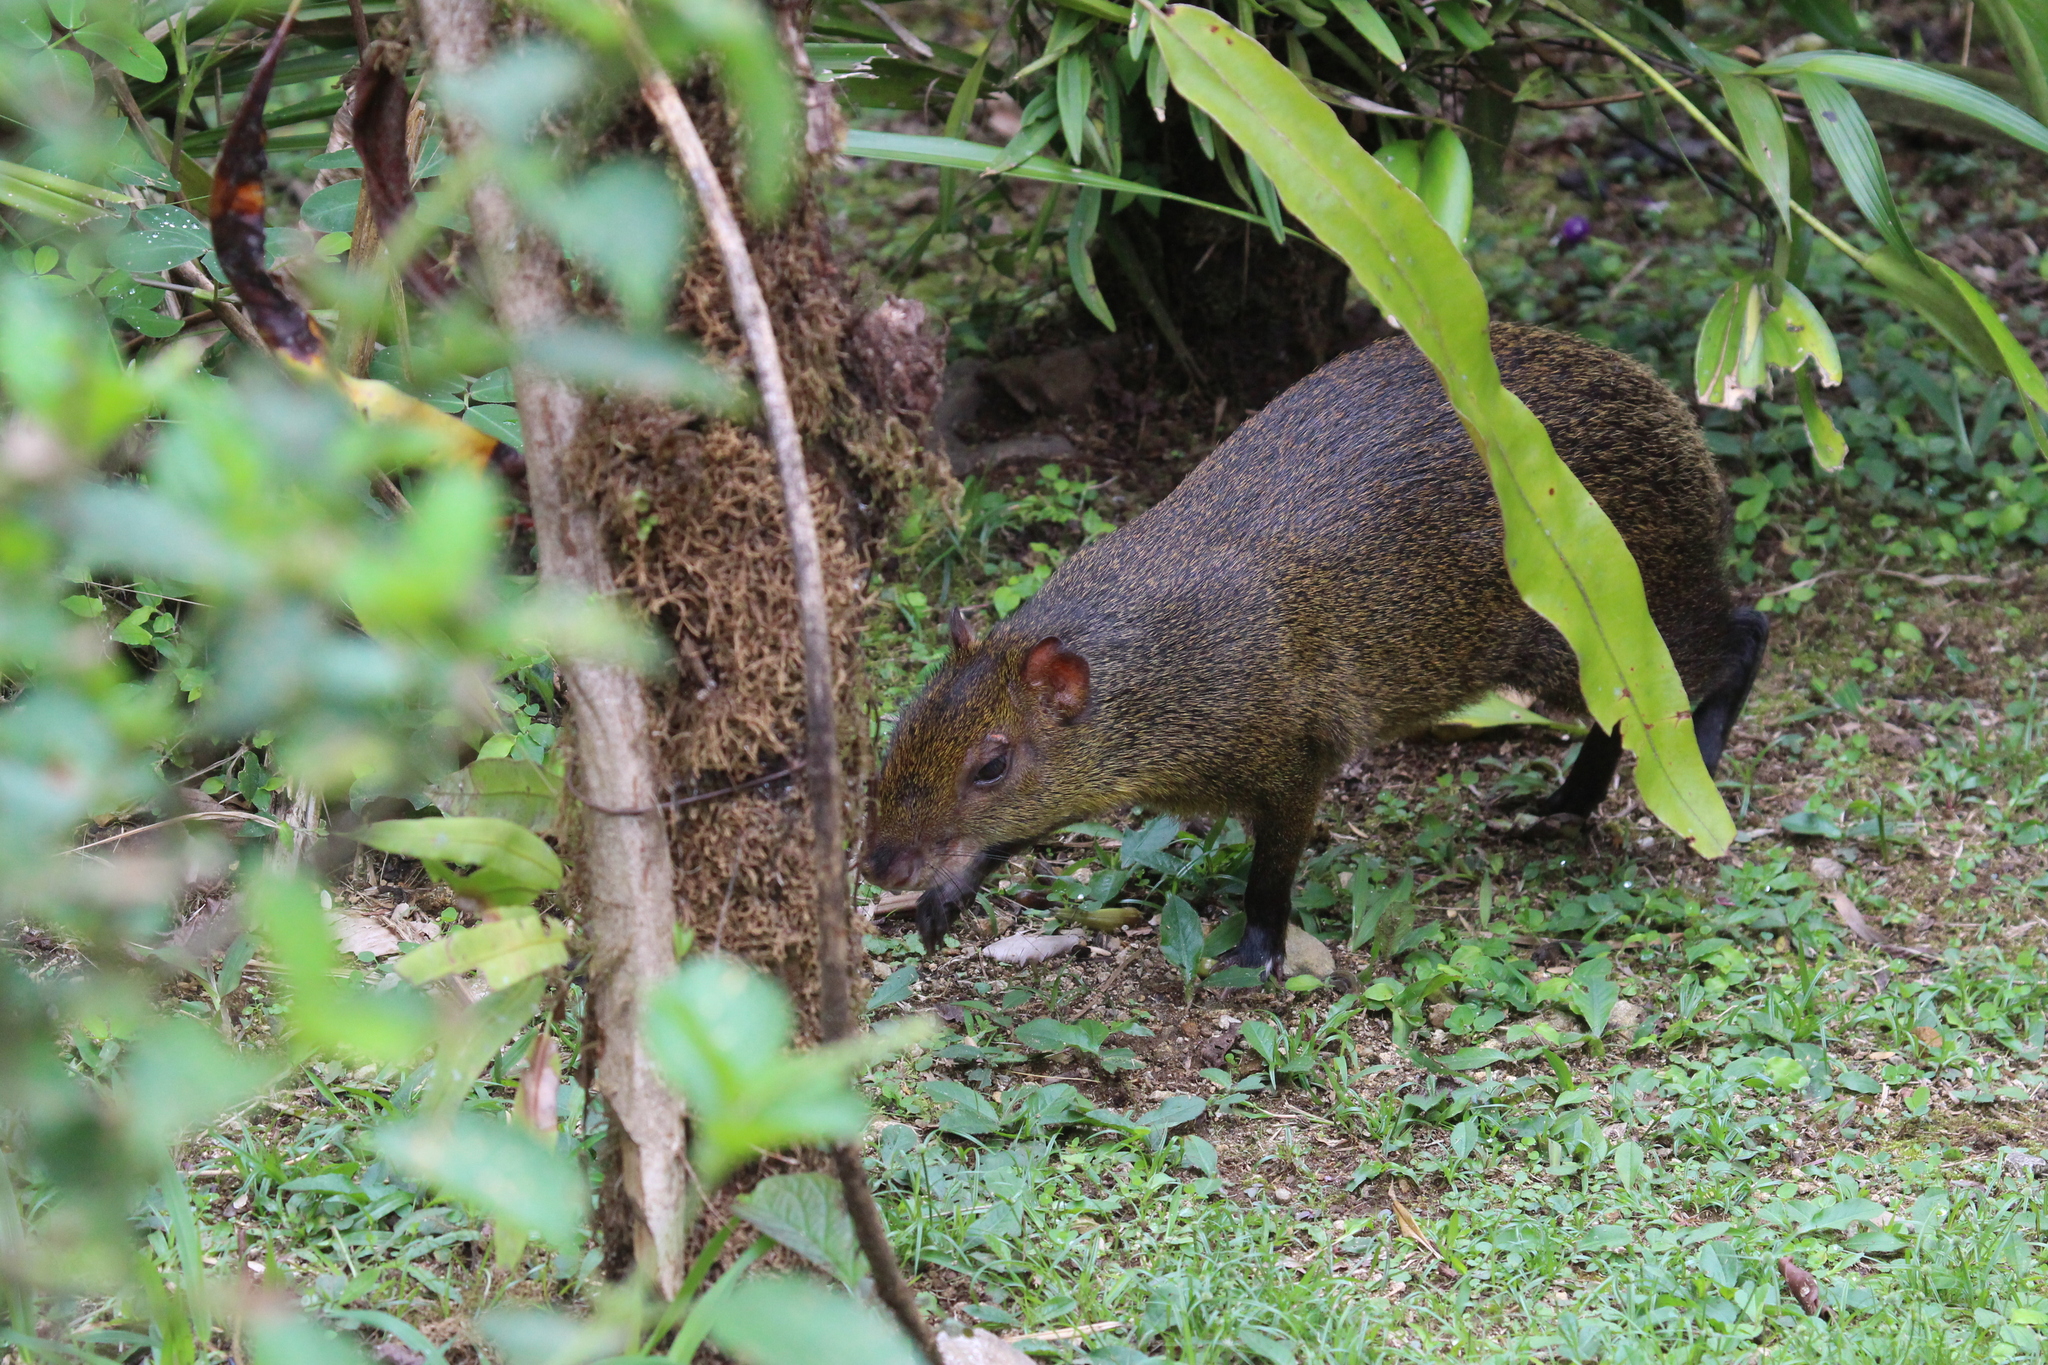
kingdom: Animalia
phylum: Chordata
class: Mammalia
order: Rodentia
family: Dasyproctidae
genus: Dasyprocta
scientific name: Dasyprocta variegata
